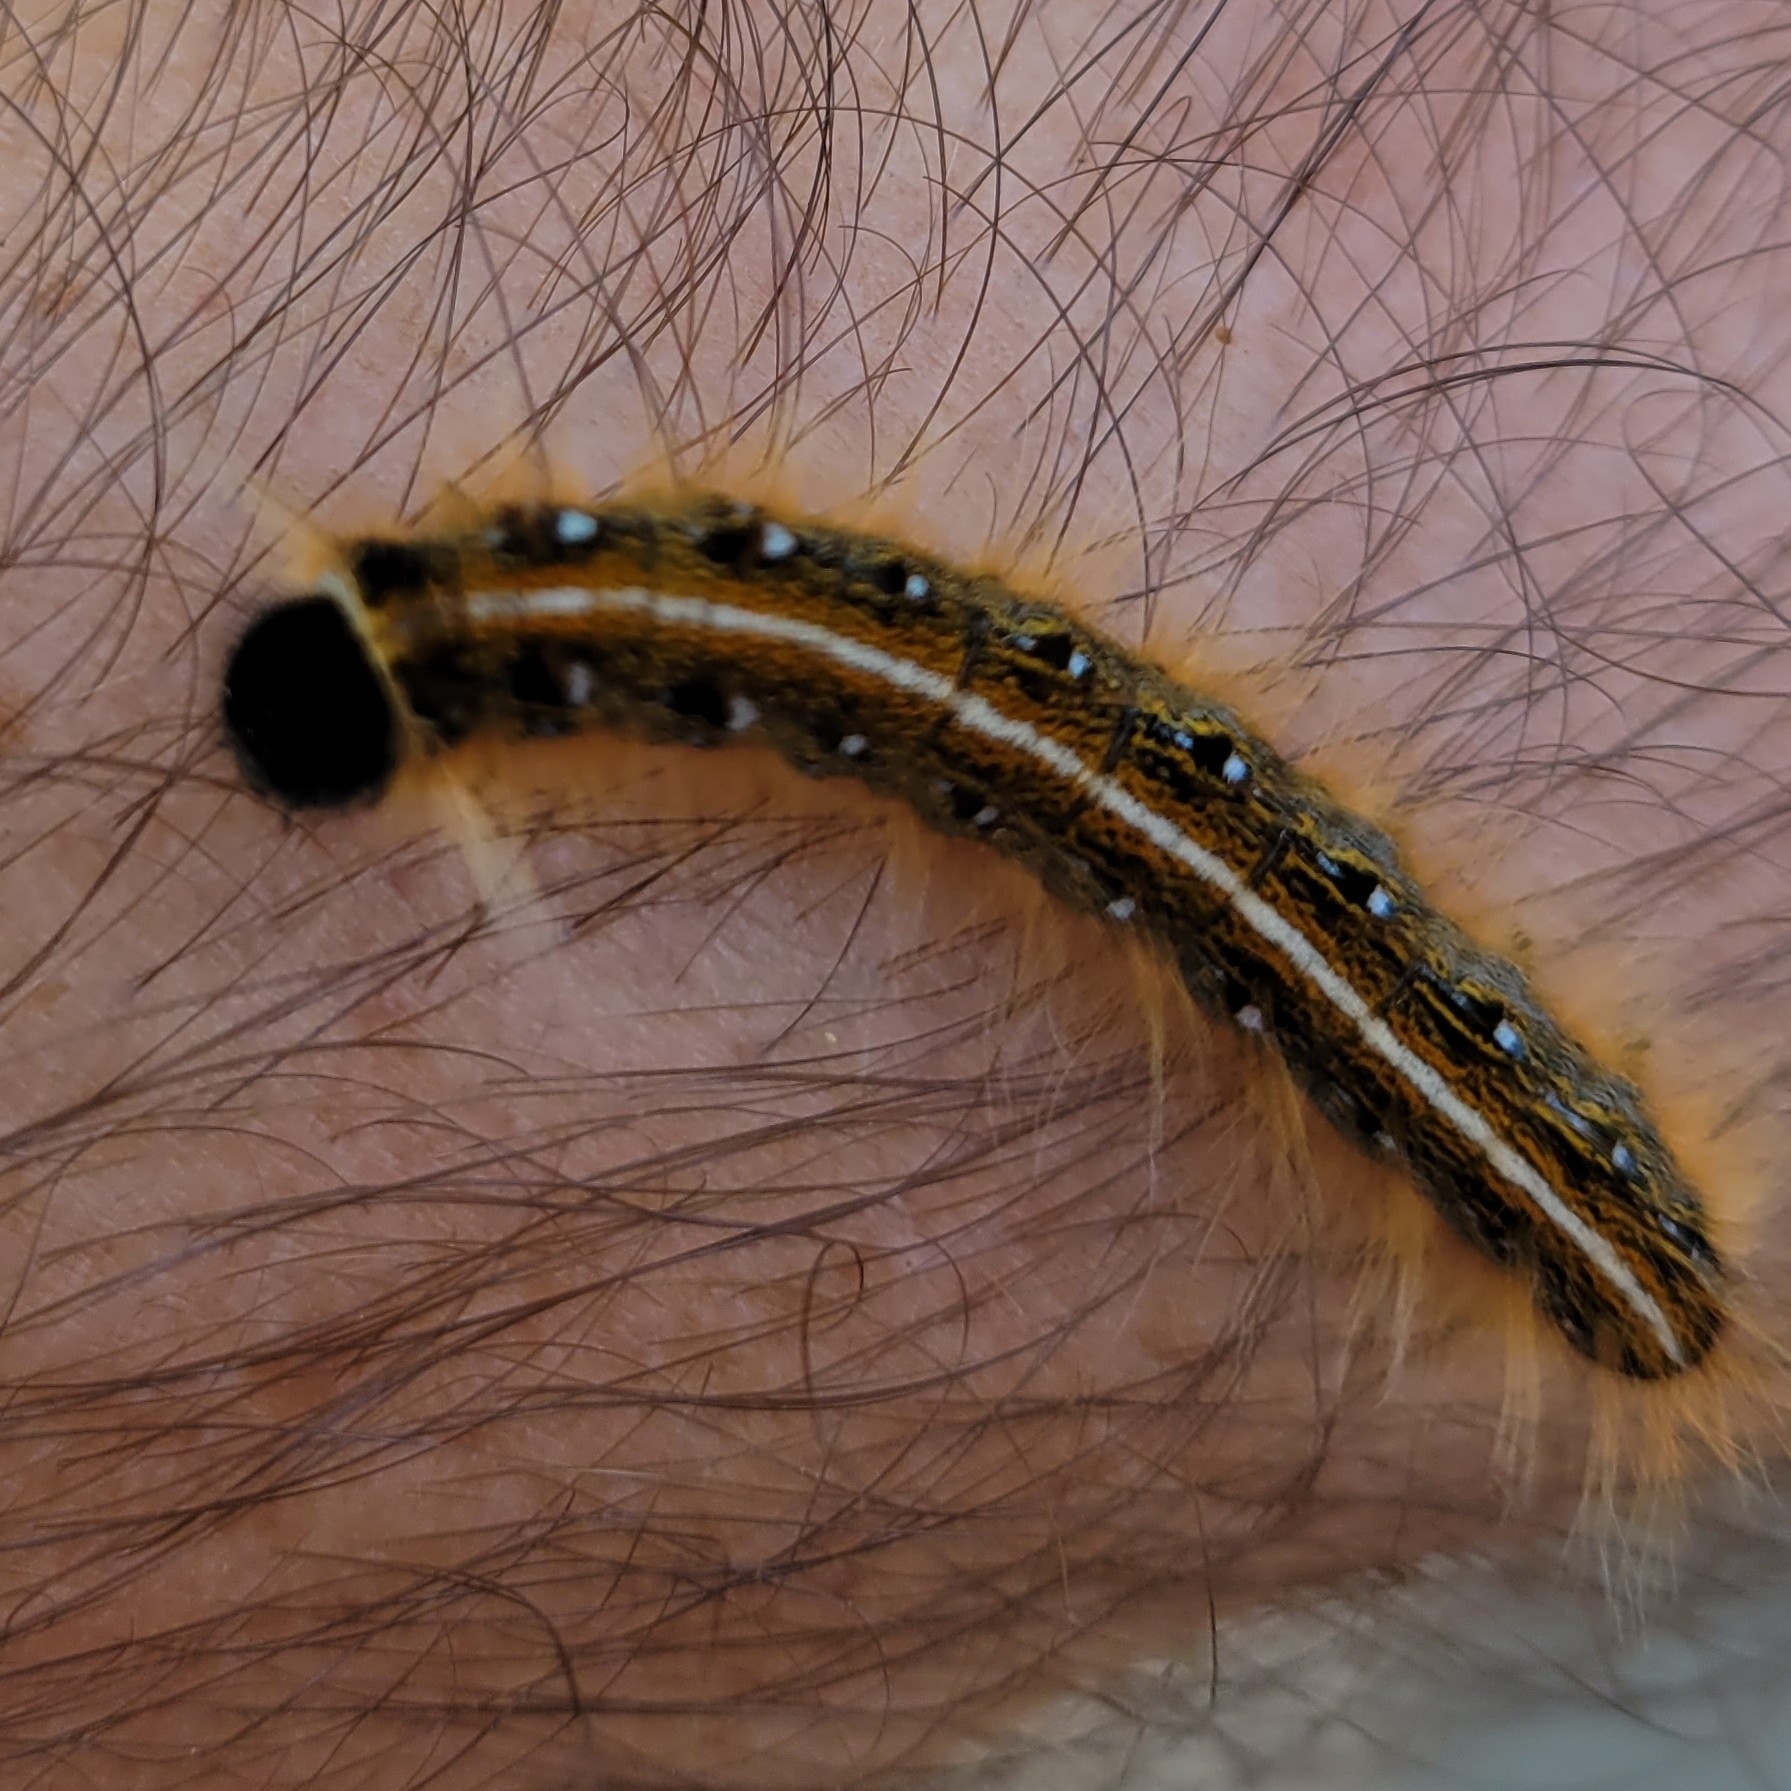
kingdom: Animalia
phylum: Arthropoda
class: Insecta
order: Lepidoptera
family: Lasiocampidae
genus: Malacosoma
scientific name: Malacosoma americana
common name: Eastern tent caterpillar moth
